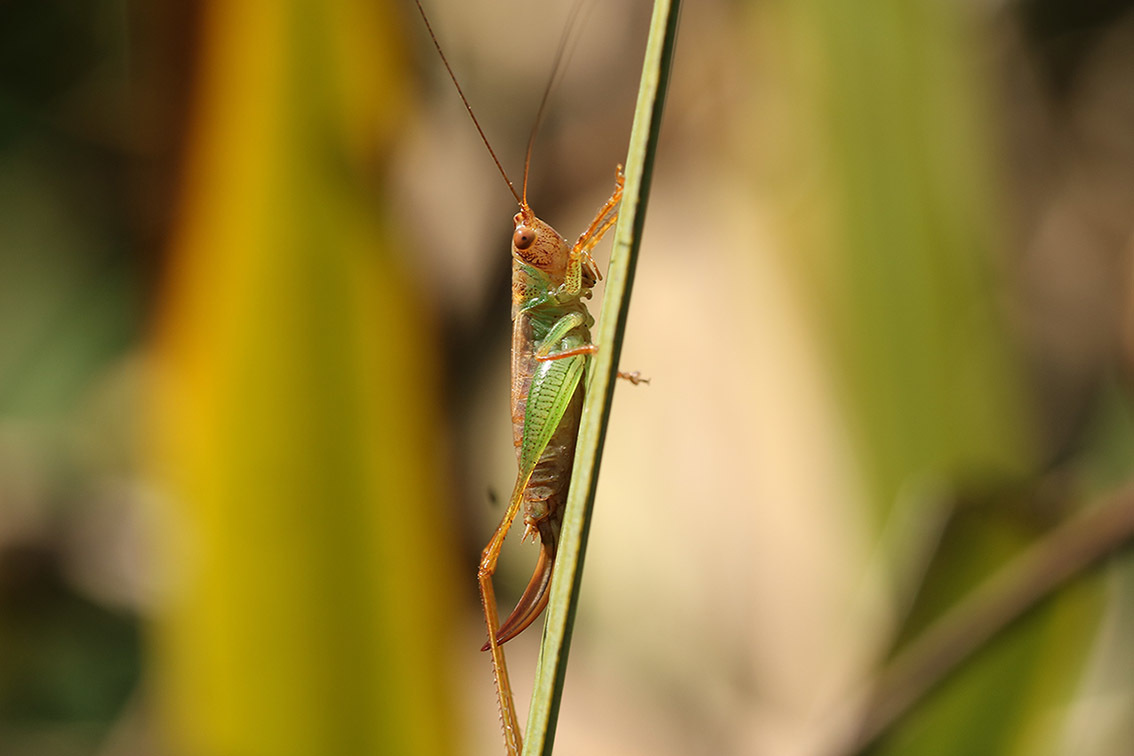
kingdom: Animalia
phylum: Arthropoda
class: Insecta
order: Orthoptera
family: Tettigoniidae
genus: Conocephalus
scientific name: Conocephalus cinnamonifrons
